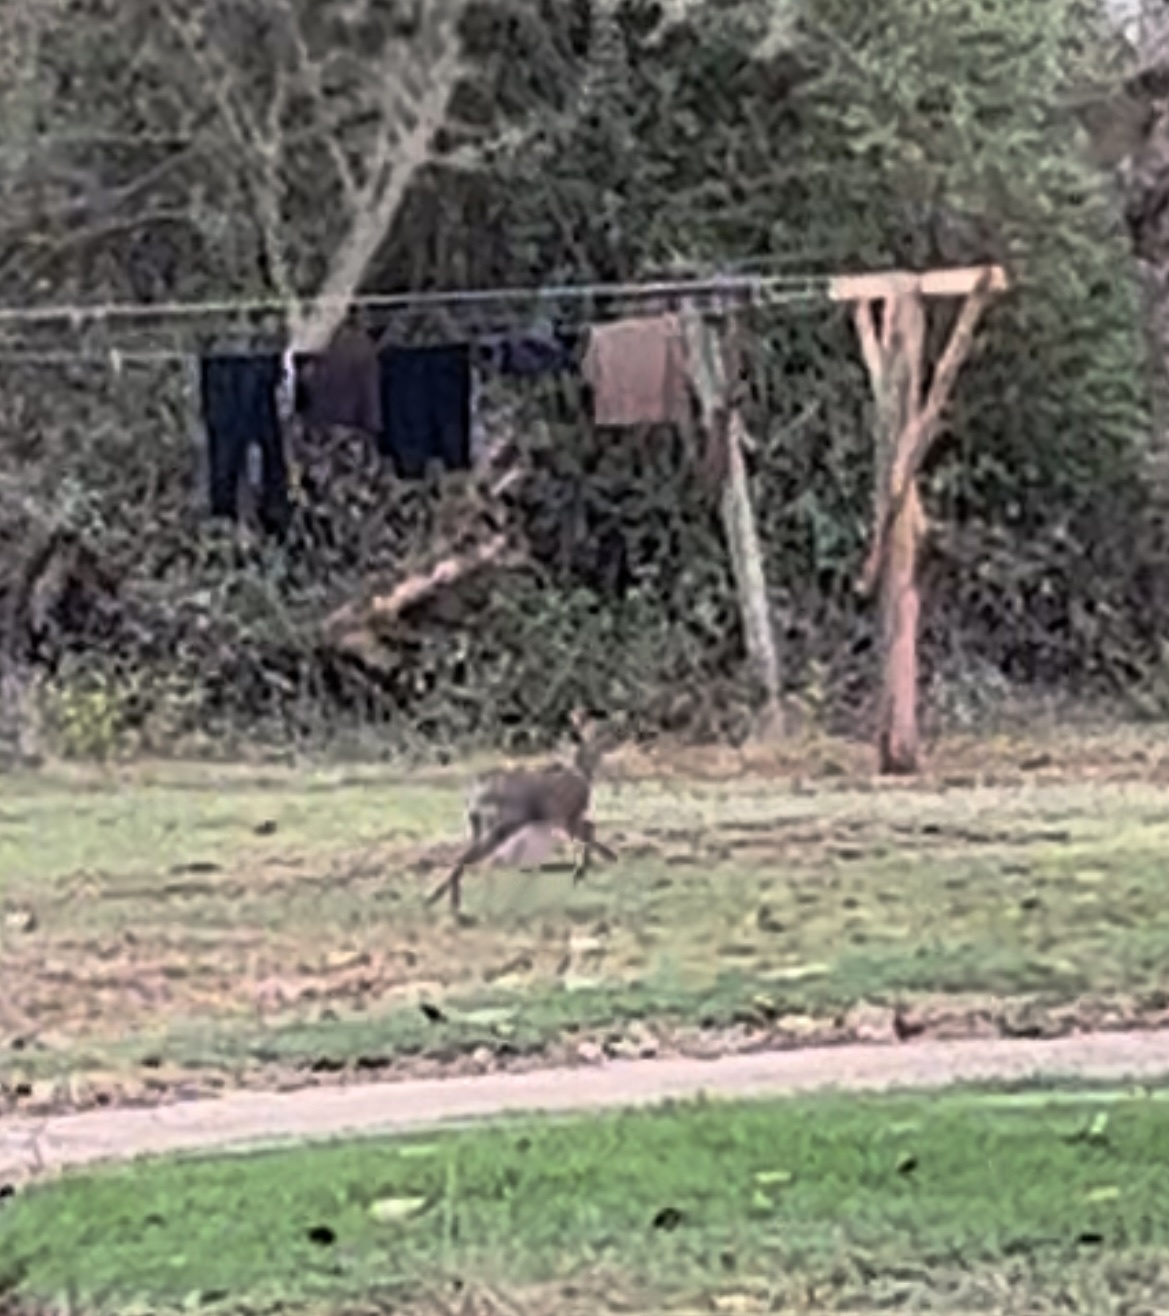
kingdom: Animalia
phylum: Chordata
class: Mammalia
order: Artiodactyla
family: Bovidae
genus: Madoqua
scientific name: Madoqua
